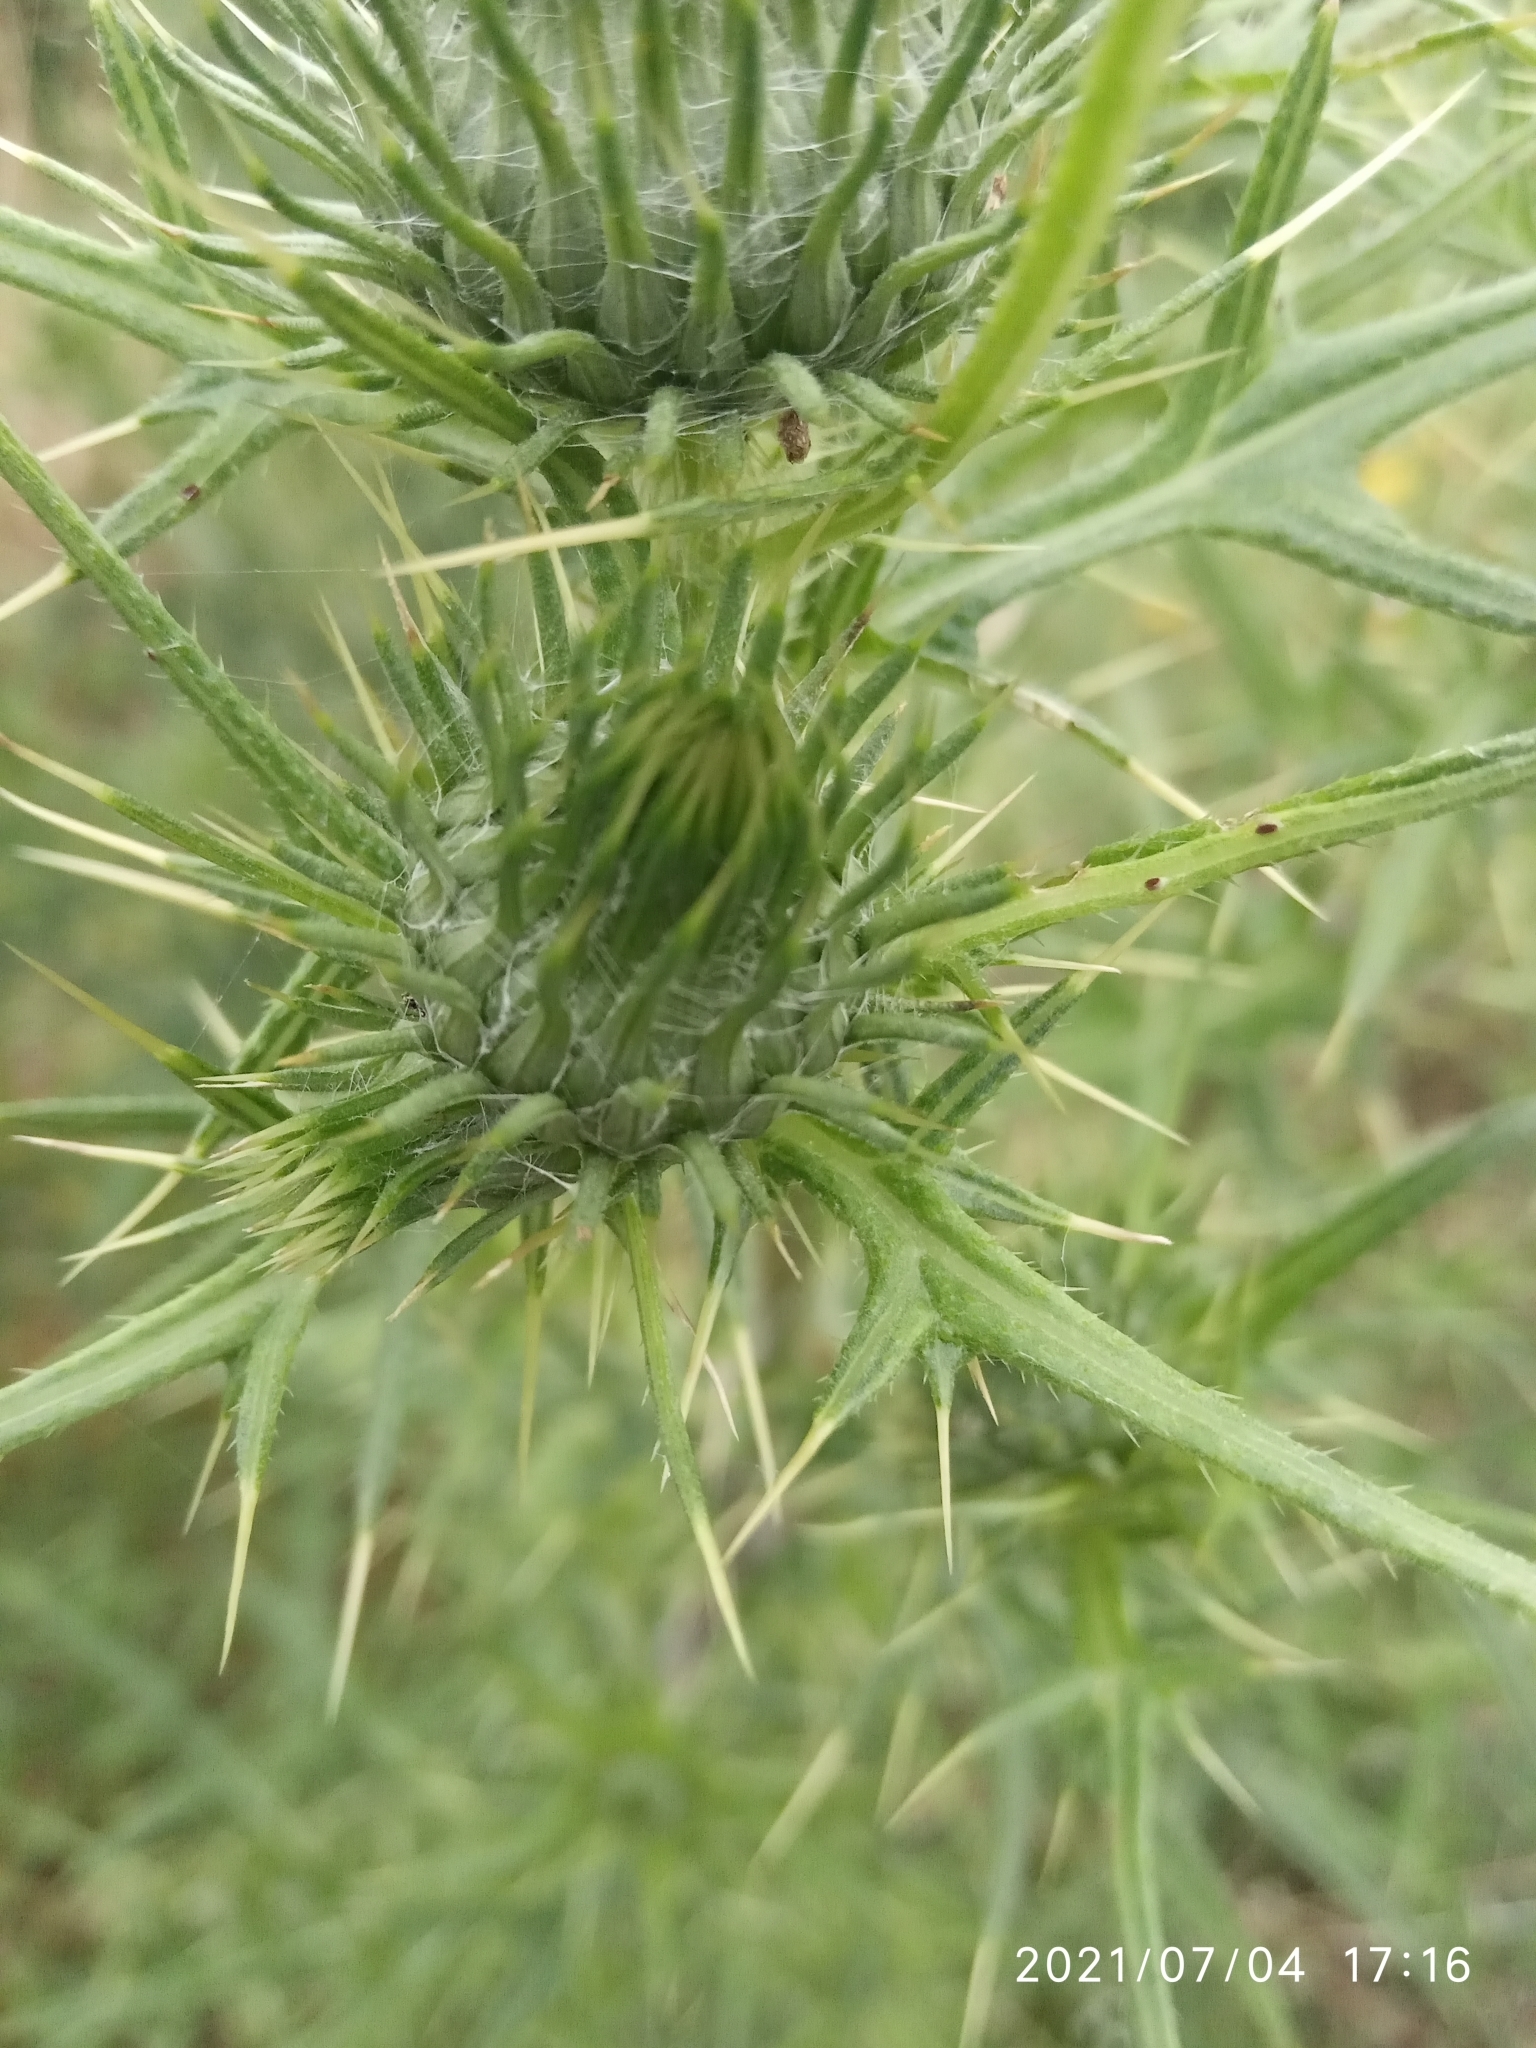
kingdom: Plantae
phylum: Tracheophyta
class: Magnoliopsida
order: Asterales
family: Asteraceae
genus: Cirsium
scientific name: Cirsium vulgare
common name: Bull thistle
